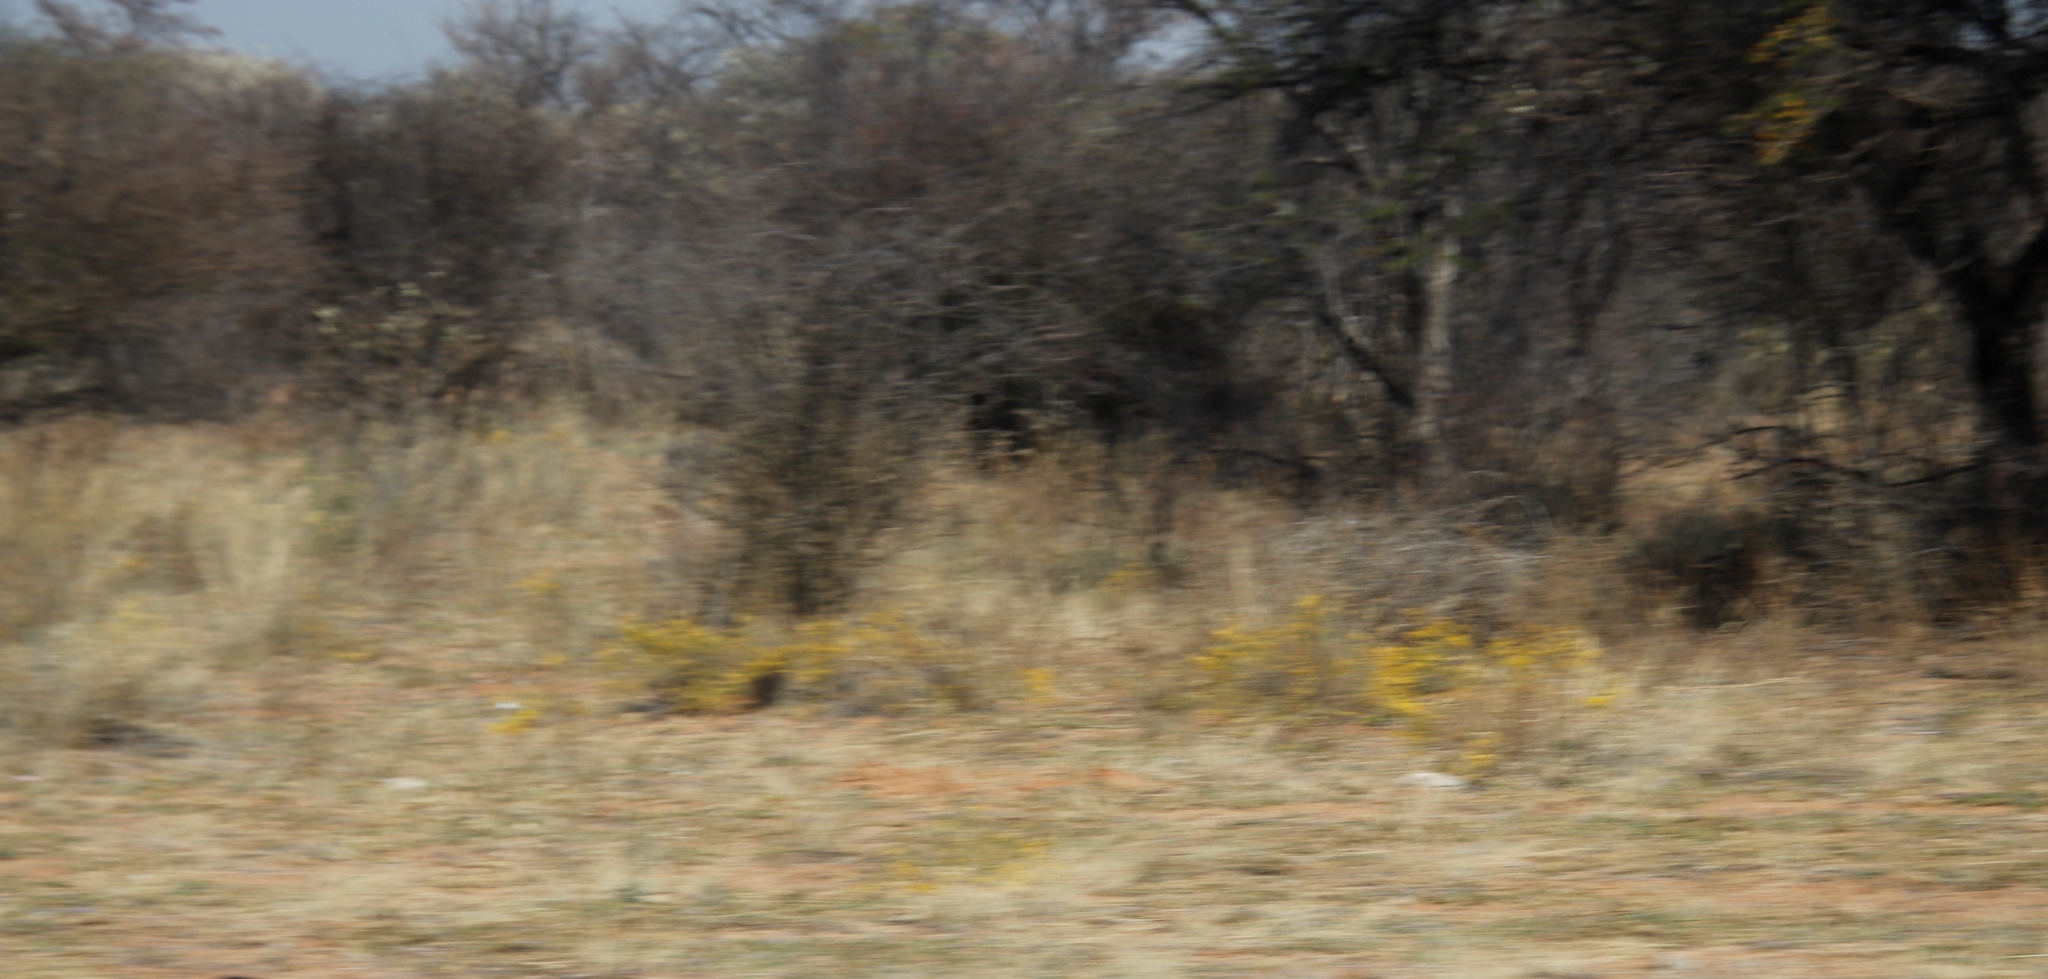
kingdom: Plantae
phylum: Tracheophyta
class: Magnoliopsida
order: Malvales
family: Thymelaeaceae
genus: Gnidia
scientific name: Gnidia polycephala
